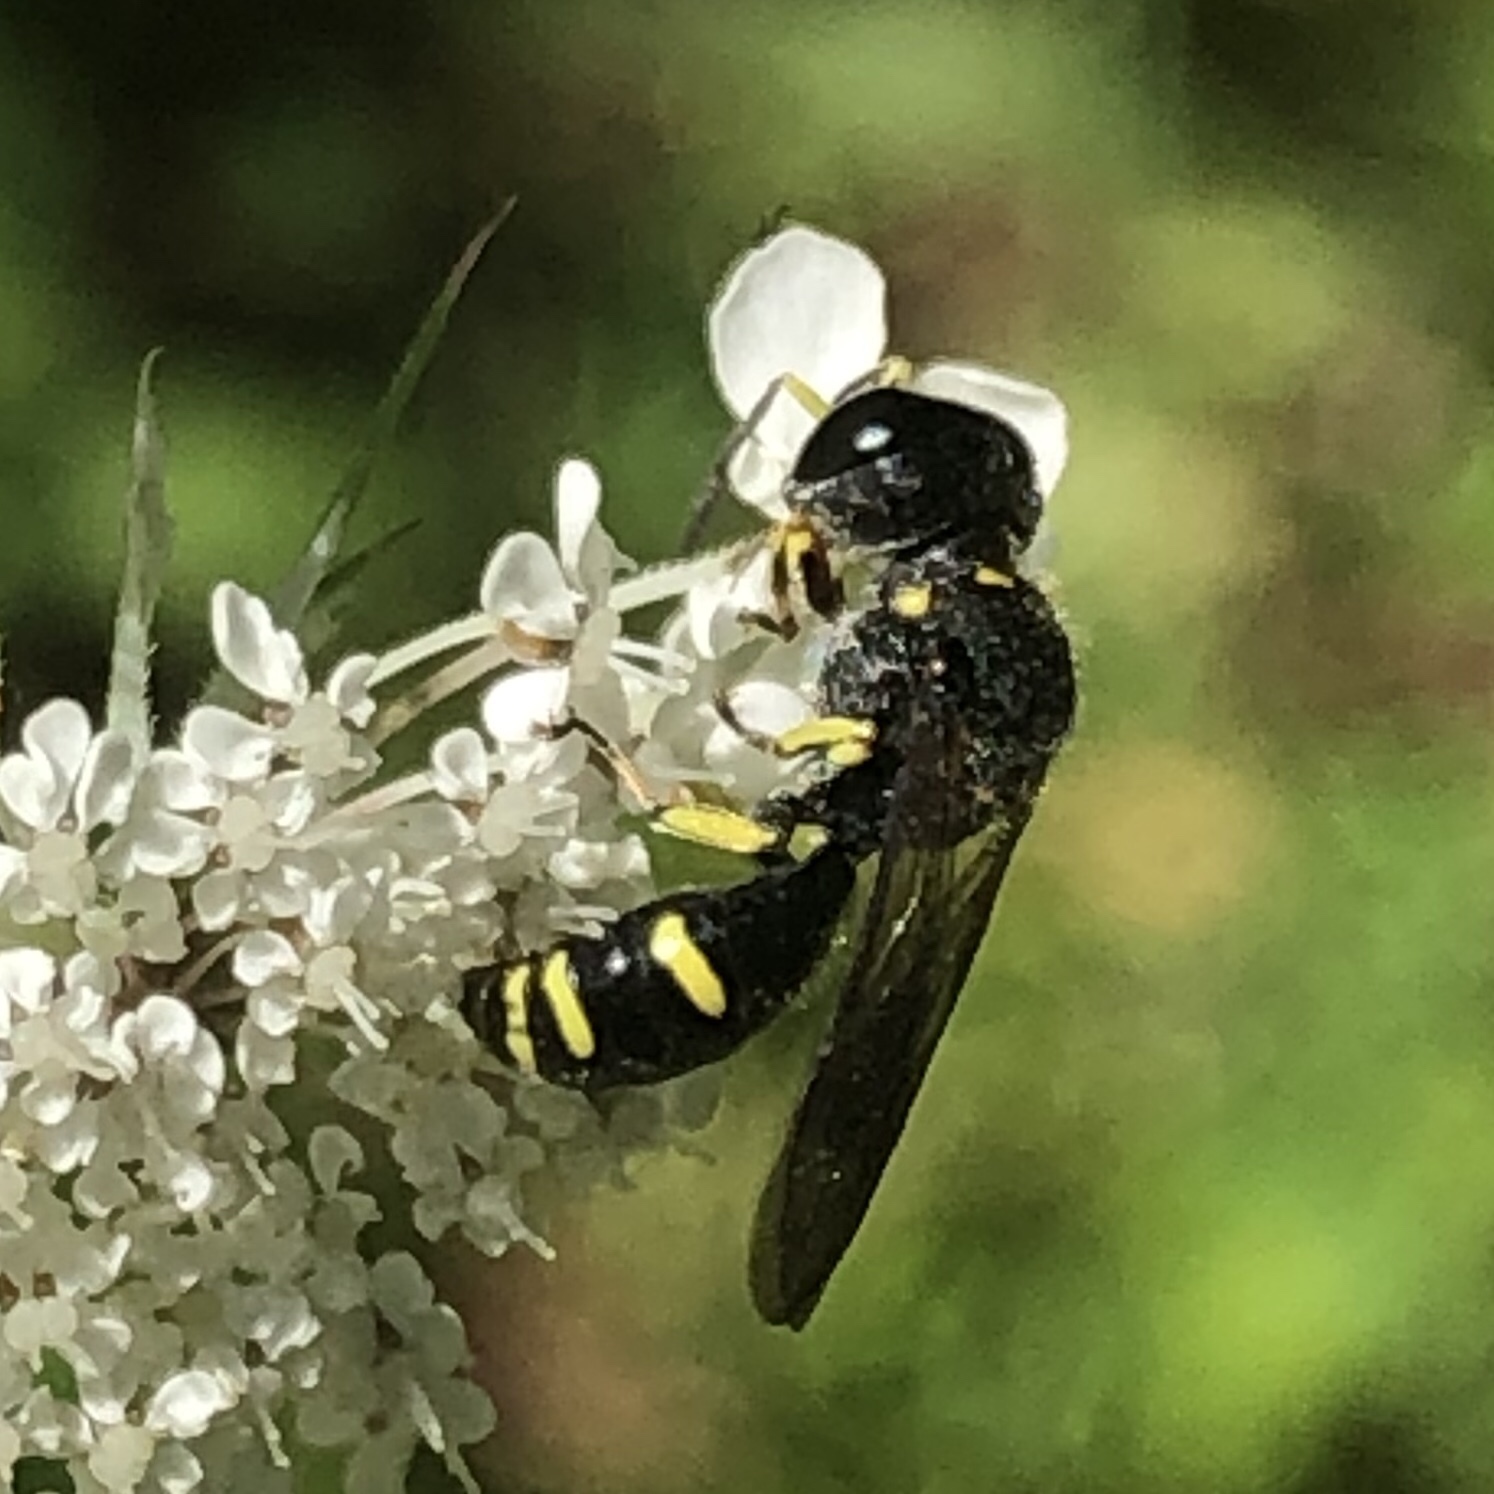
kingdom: Animalia
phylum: Arthropoda
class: Insecta
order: Hymenoptera
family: Crabronidae
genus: Ectemnius
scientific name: Ectemnius continuus
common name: Common ectemnius
